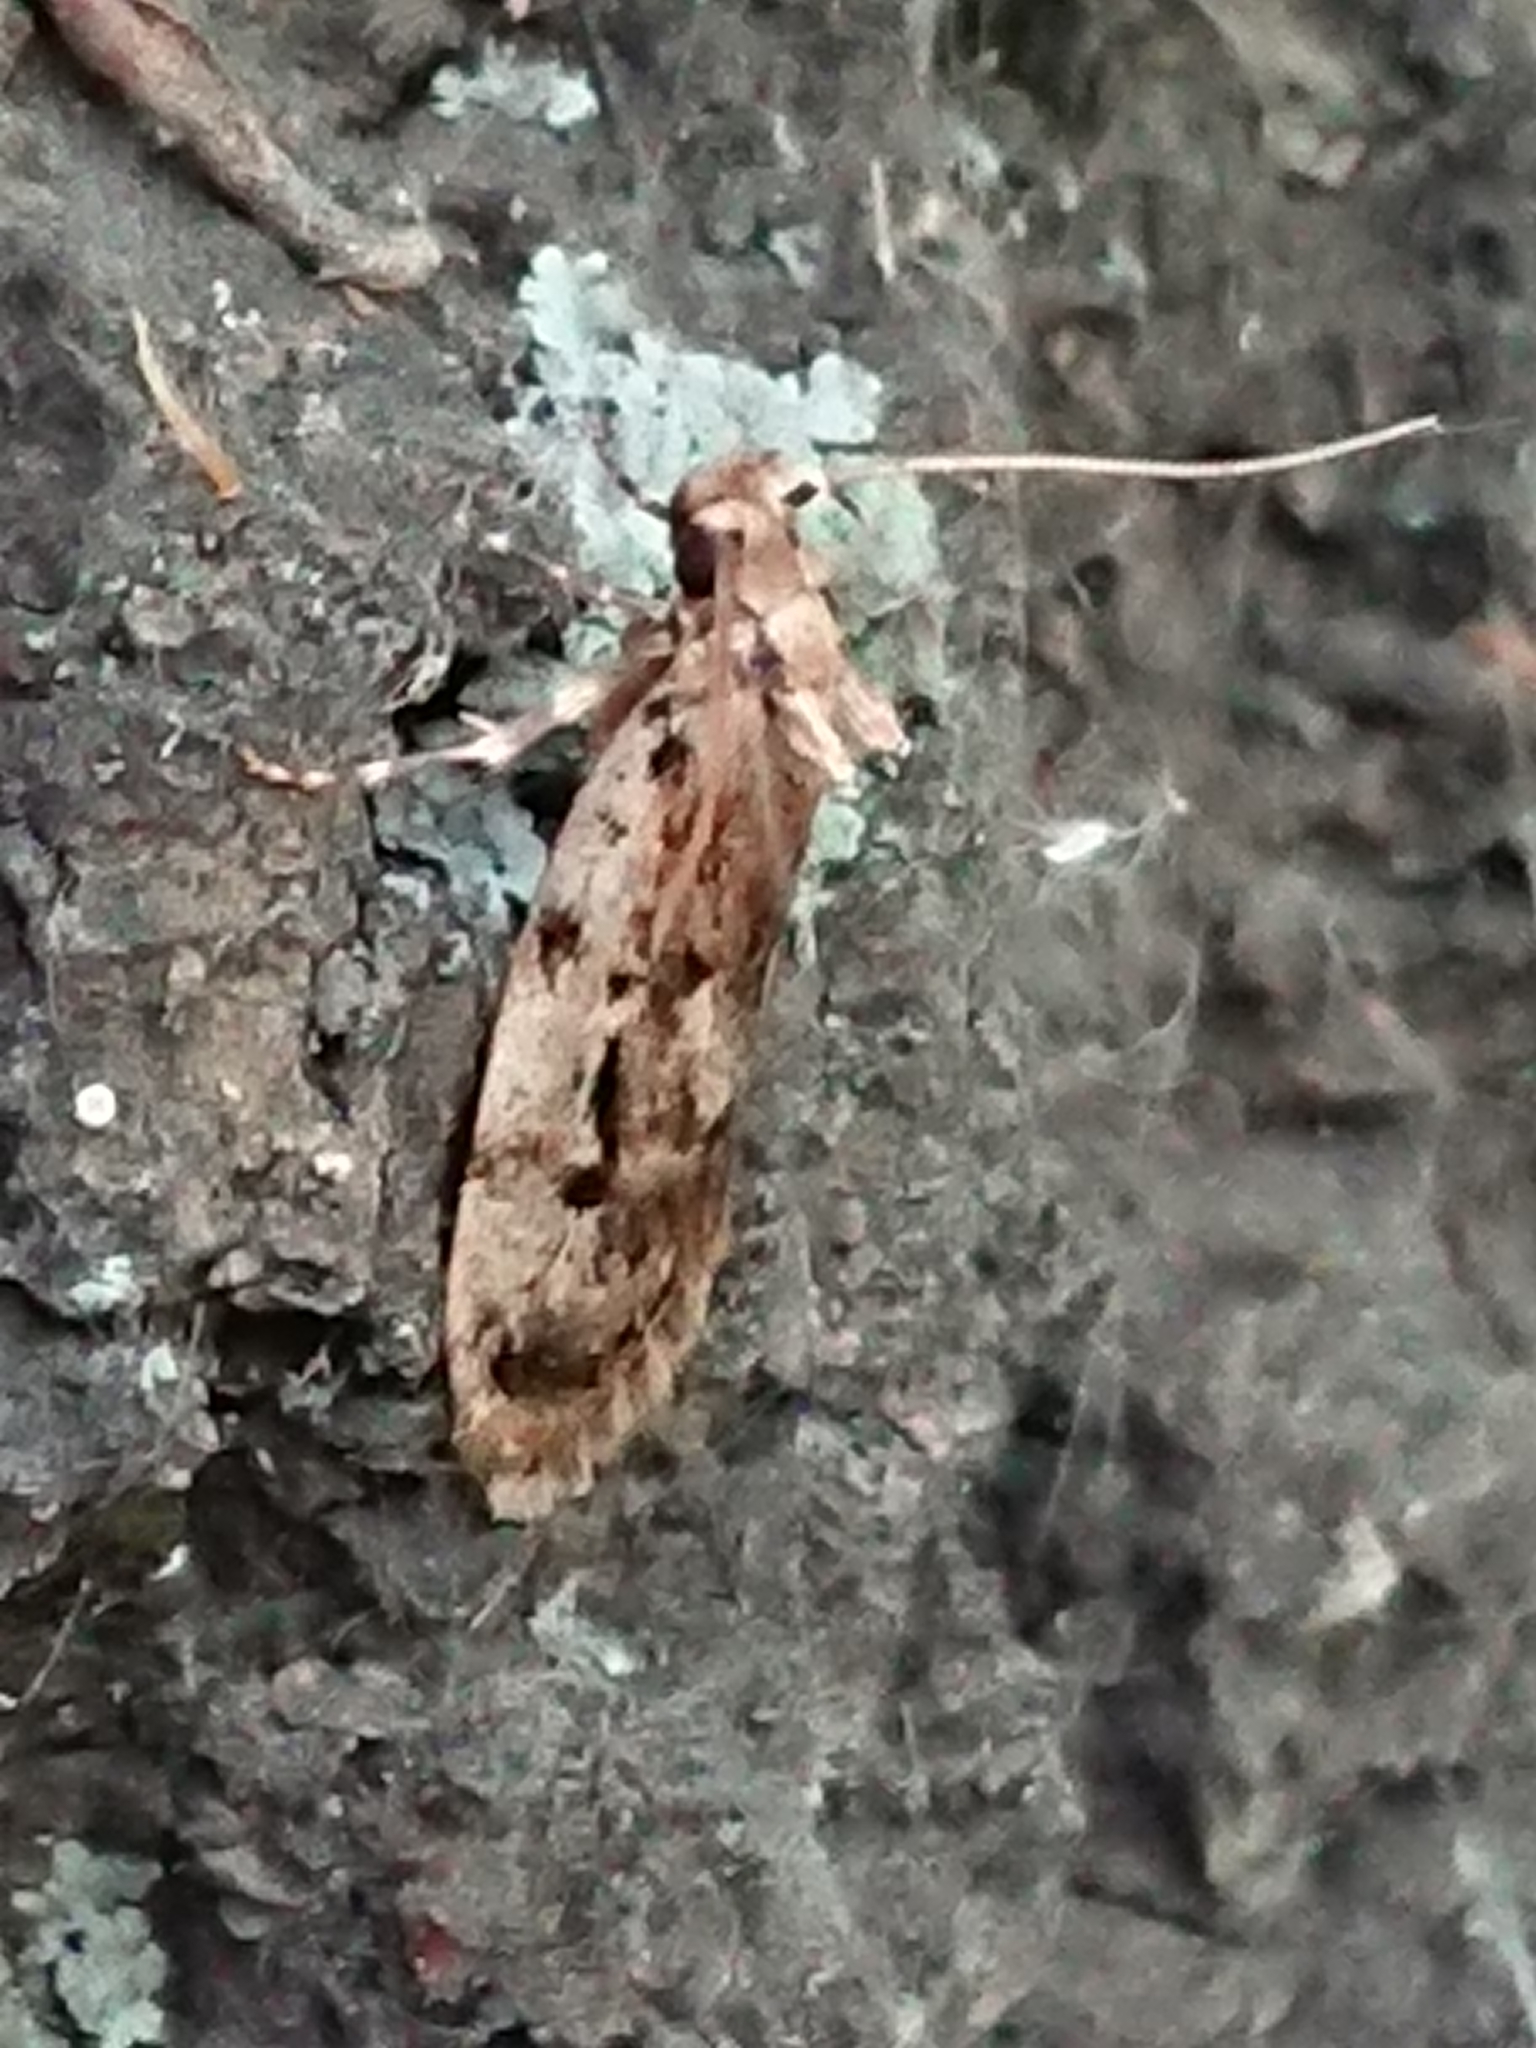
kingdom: Animalia
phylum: Arthropoda
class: Insecta
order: Lepidoptera
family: Oecophoridae
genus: Barea
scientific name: Barea exarcha
